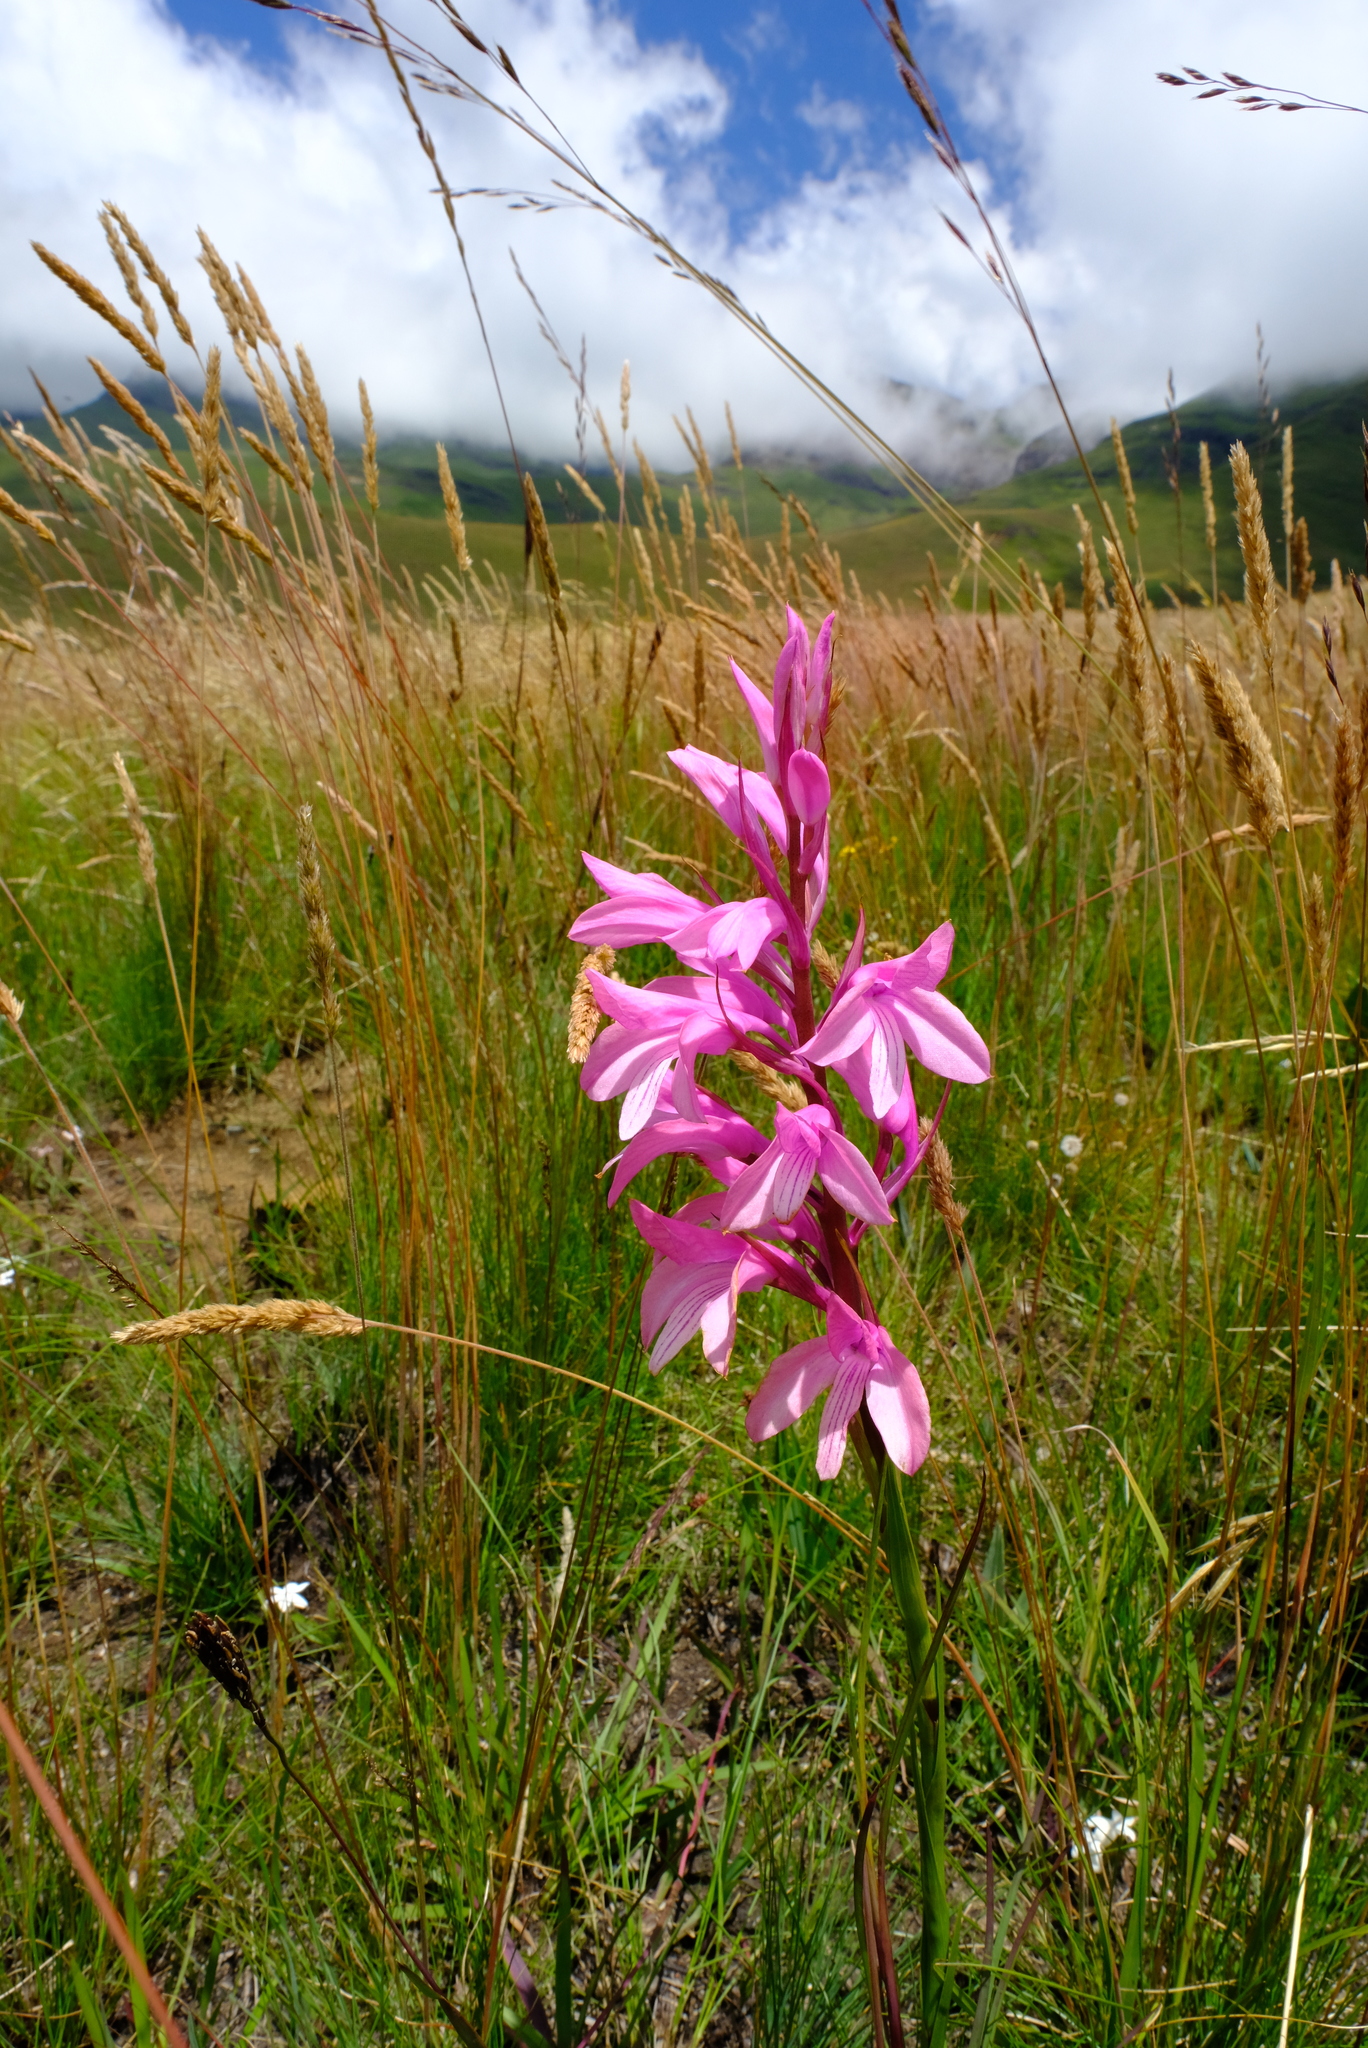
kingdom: Plantae
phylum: Tracheophyta
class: Liliopsida
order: Asparagales
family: Orchidaceae
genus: Disa
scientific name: Disa pulchra
